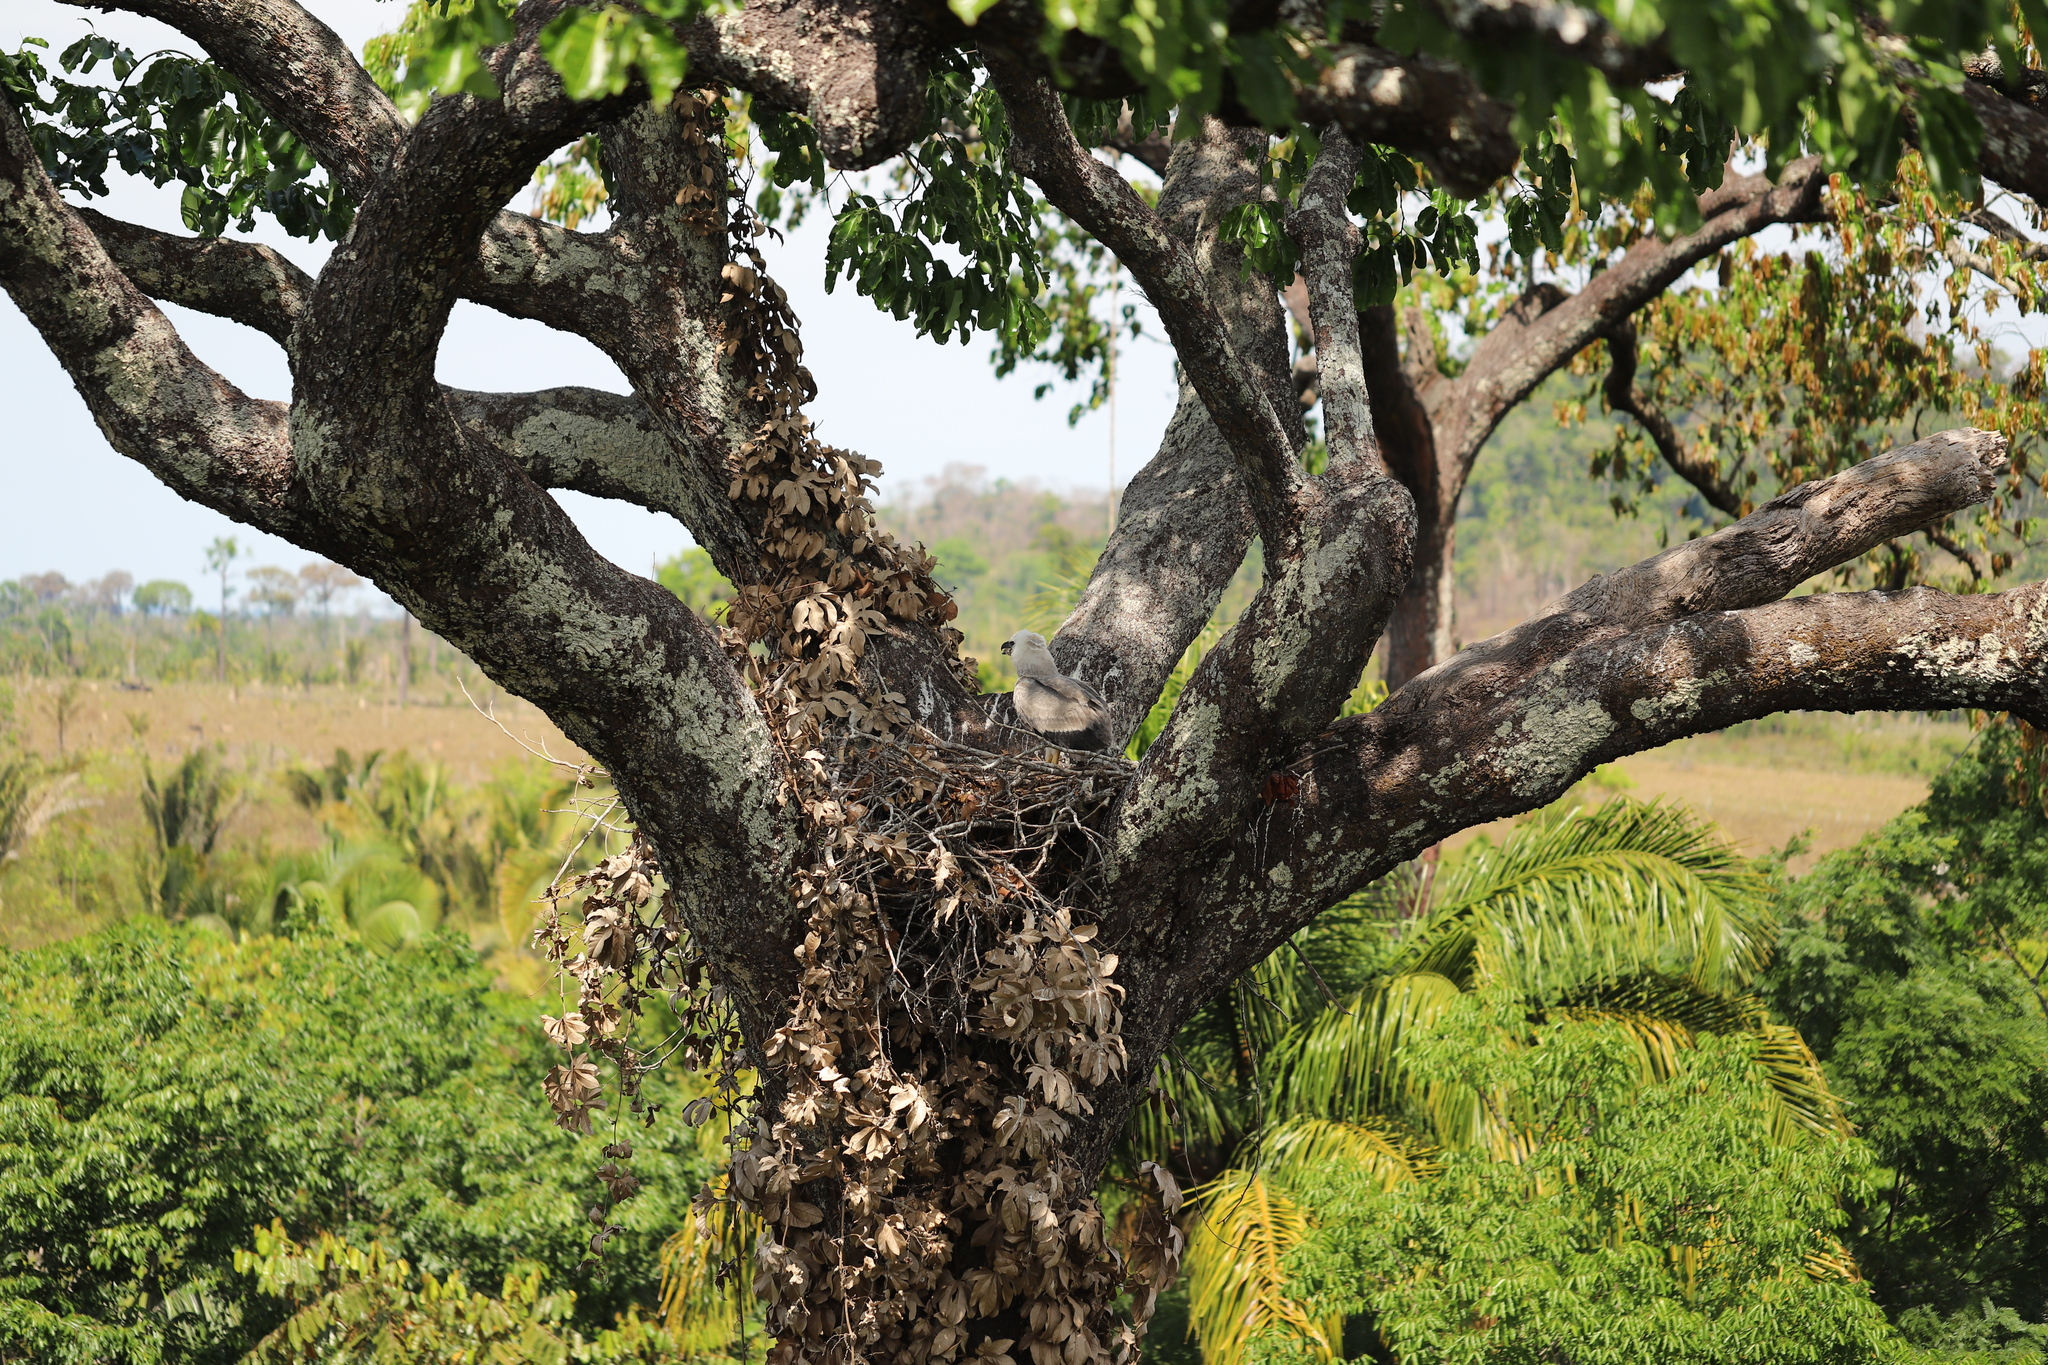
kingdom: Animalia
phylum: Chordata
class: Aves
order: Accipitriformes
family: Accipitridae
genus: Harpia
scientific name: Harpia harpyja
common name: Harpy eagle
